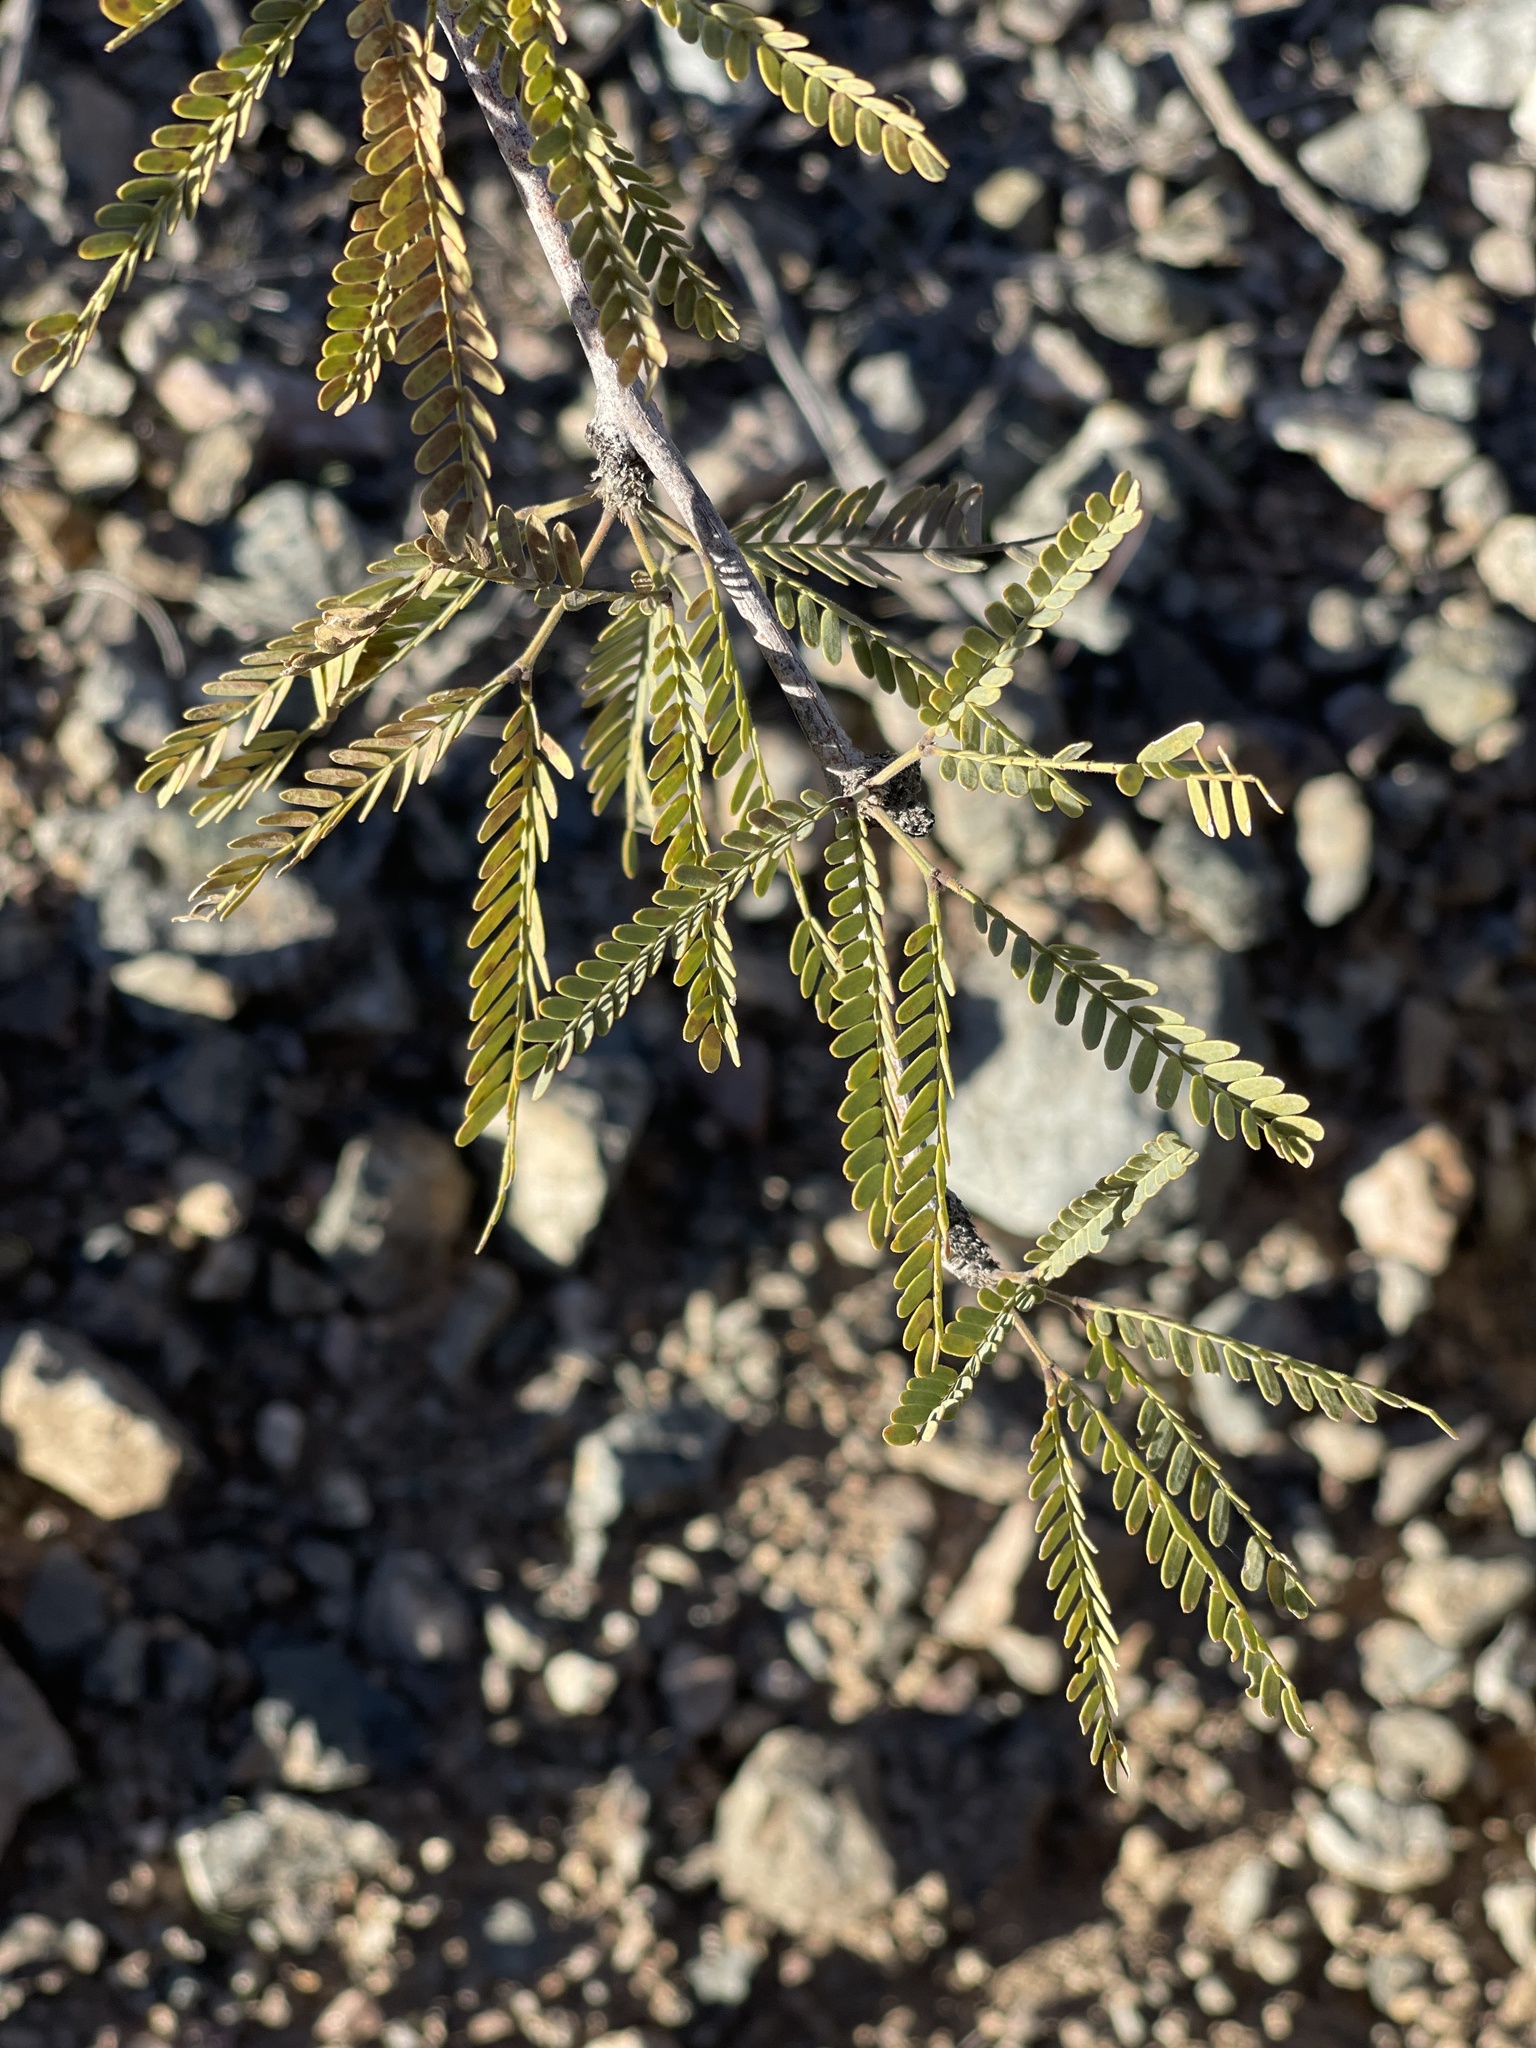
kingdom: Plantae
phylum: Tracheophyta
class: Magnoliopsida
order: Fabales
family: Fabaceae
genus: Prosopis
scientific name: Prosopis velutina
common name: Velvet mesquite
